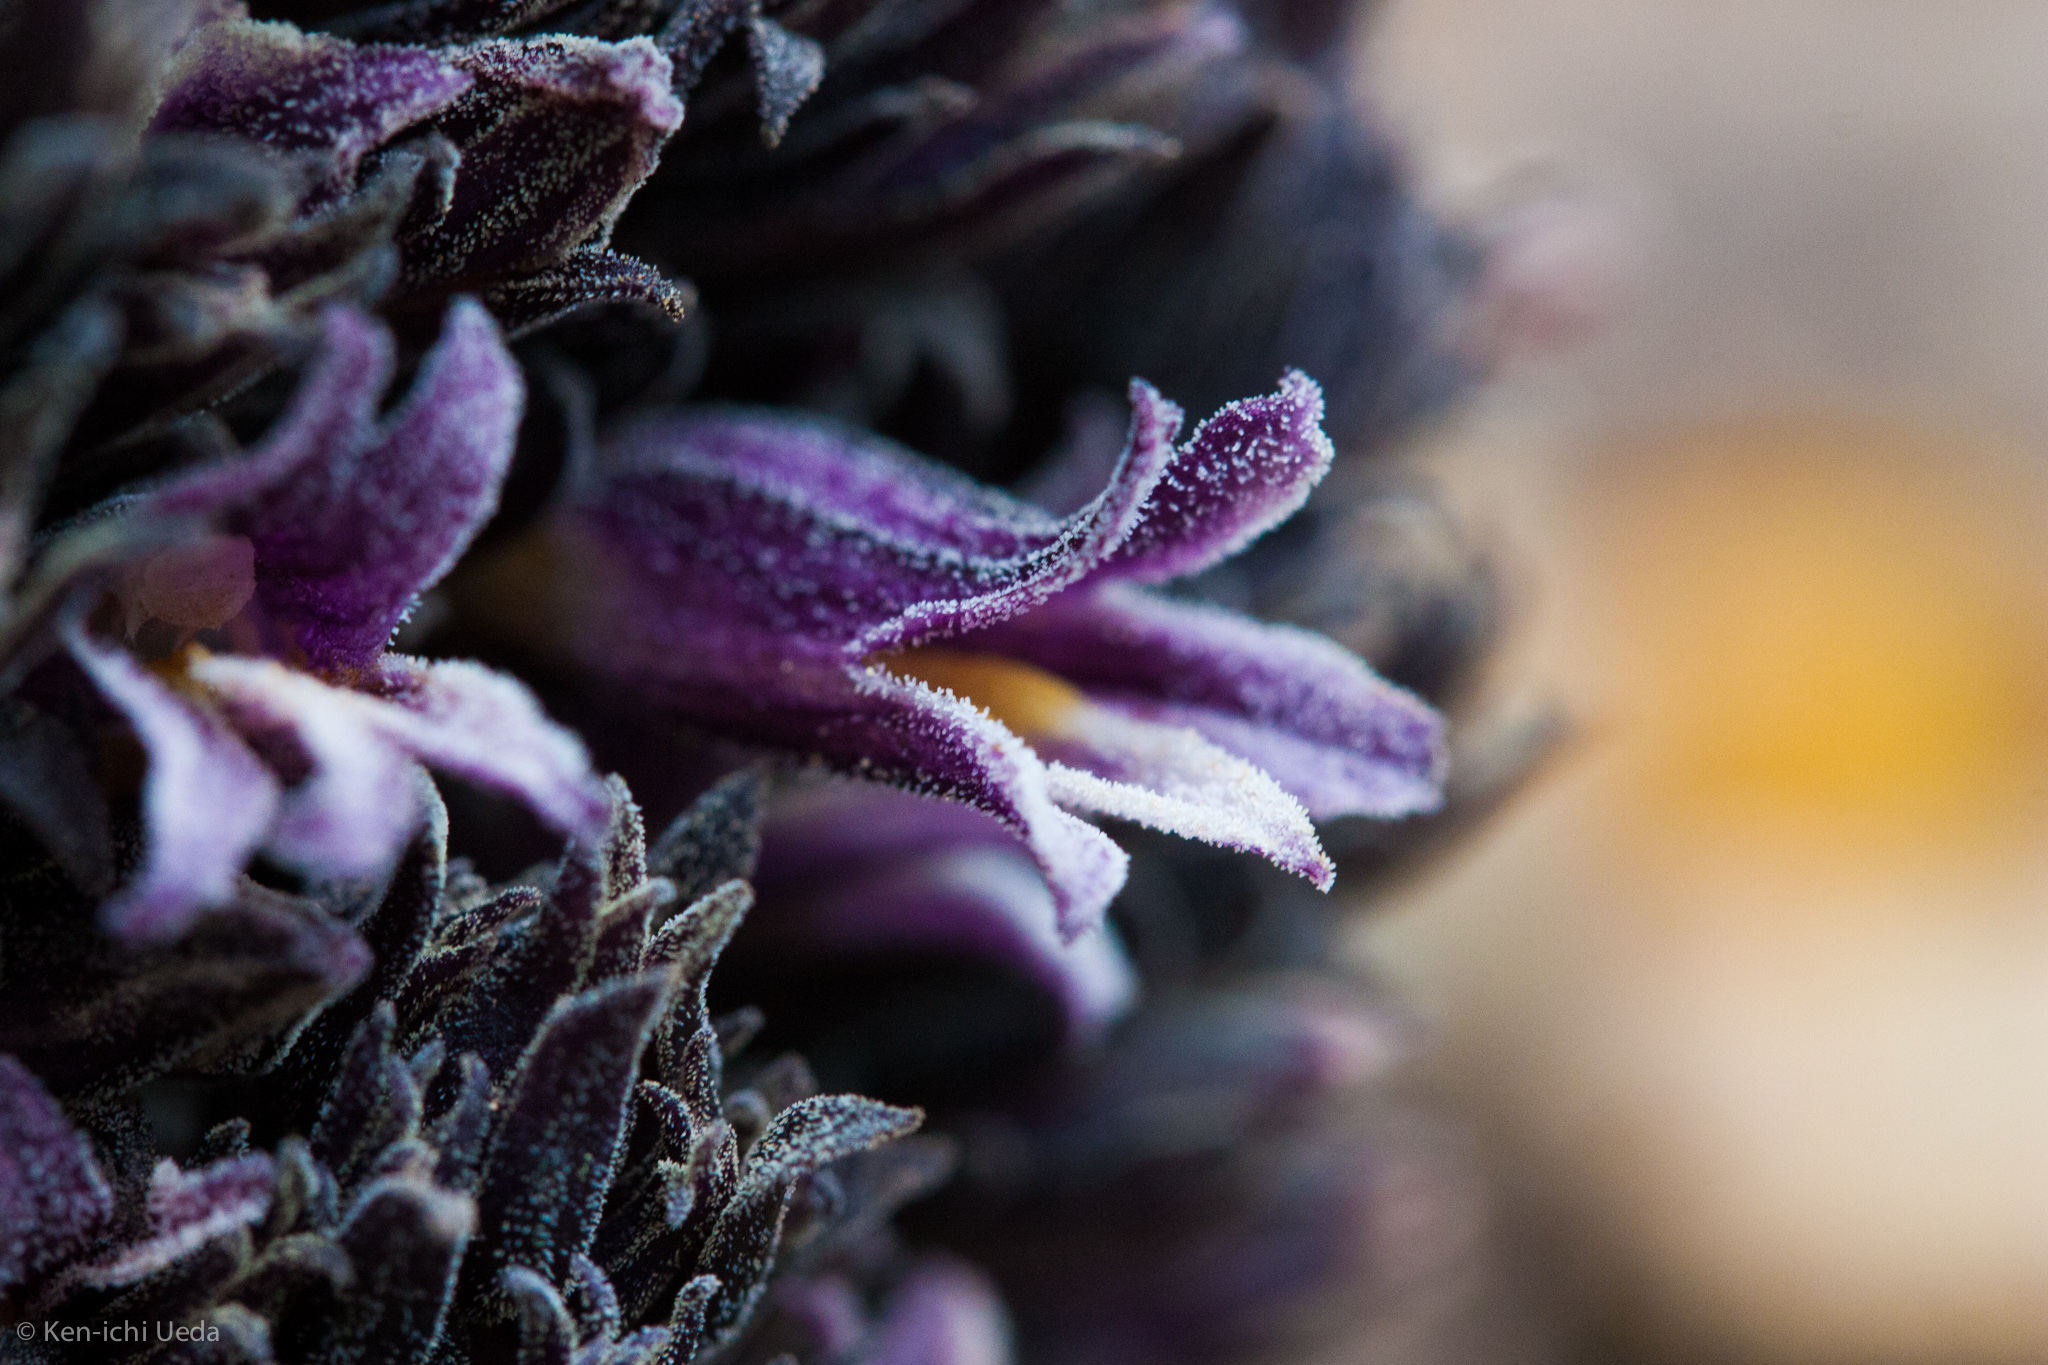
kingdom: Plantae
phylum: Tracheophyta
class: Magnoliopsida
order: Lamiales
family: Orobanchaceae
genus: Aphyllon
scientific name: Aphyllon tuberosum
